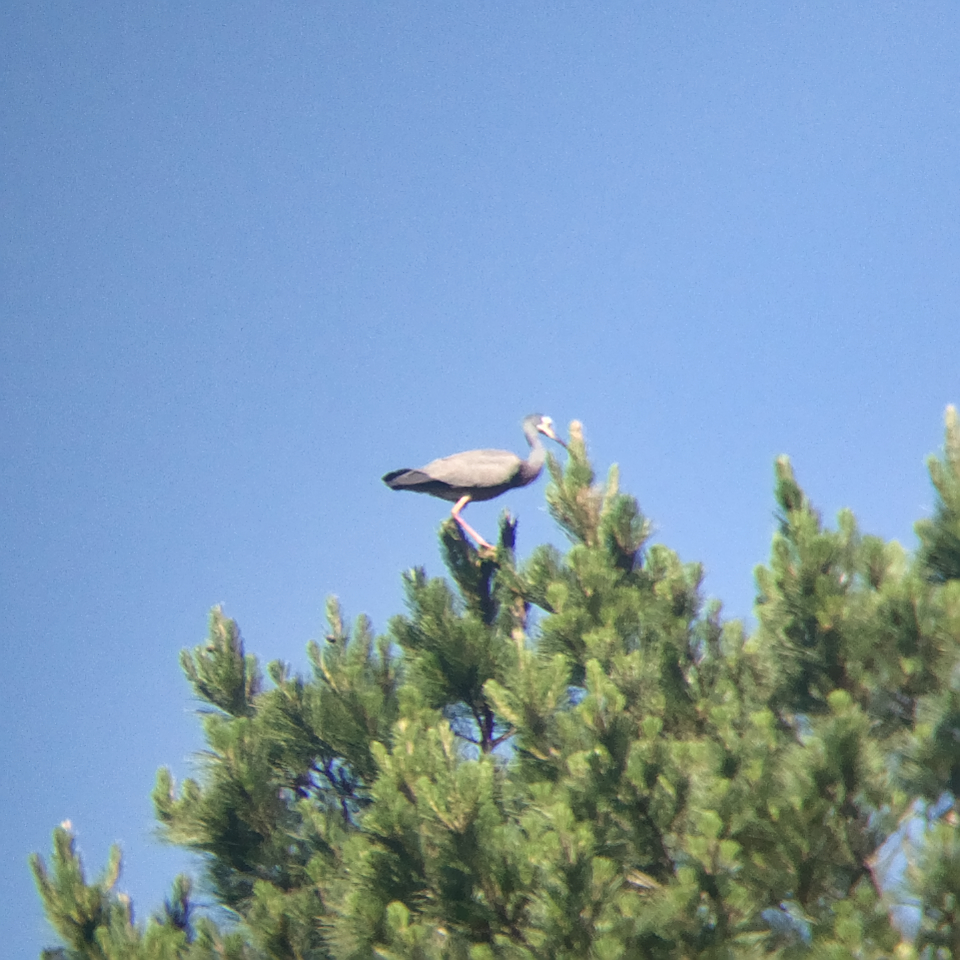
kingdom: Animalia
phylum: Chordata
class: Aves
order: Pelecaniformes
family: Ardeidae
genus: Egretta
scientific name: Egretta novaehollandiae
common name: White-faced heron
